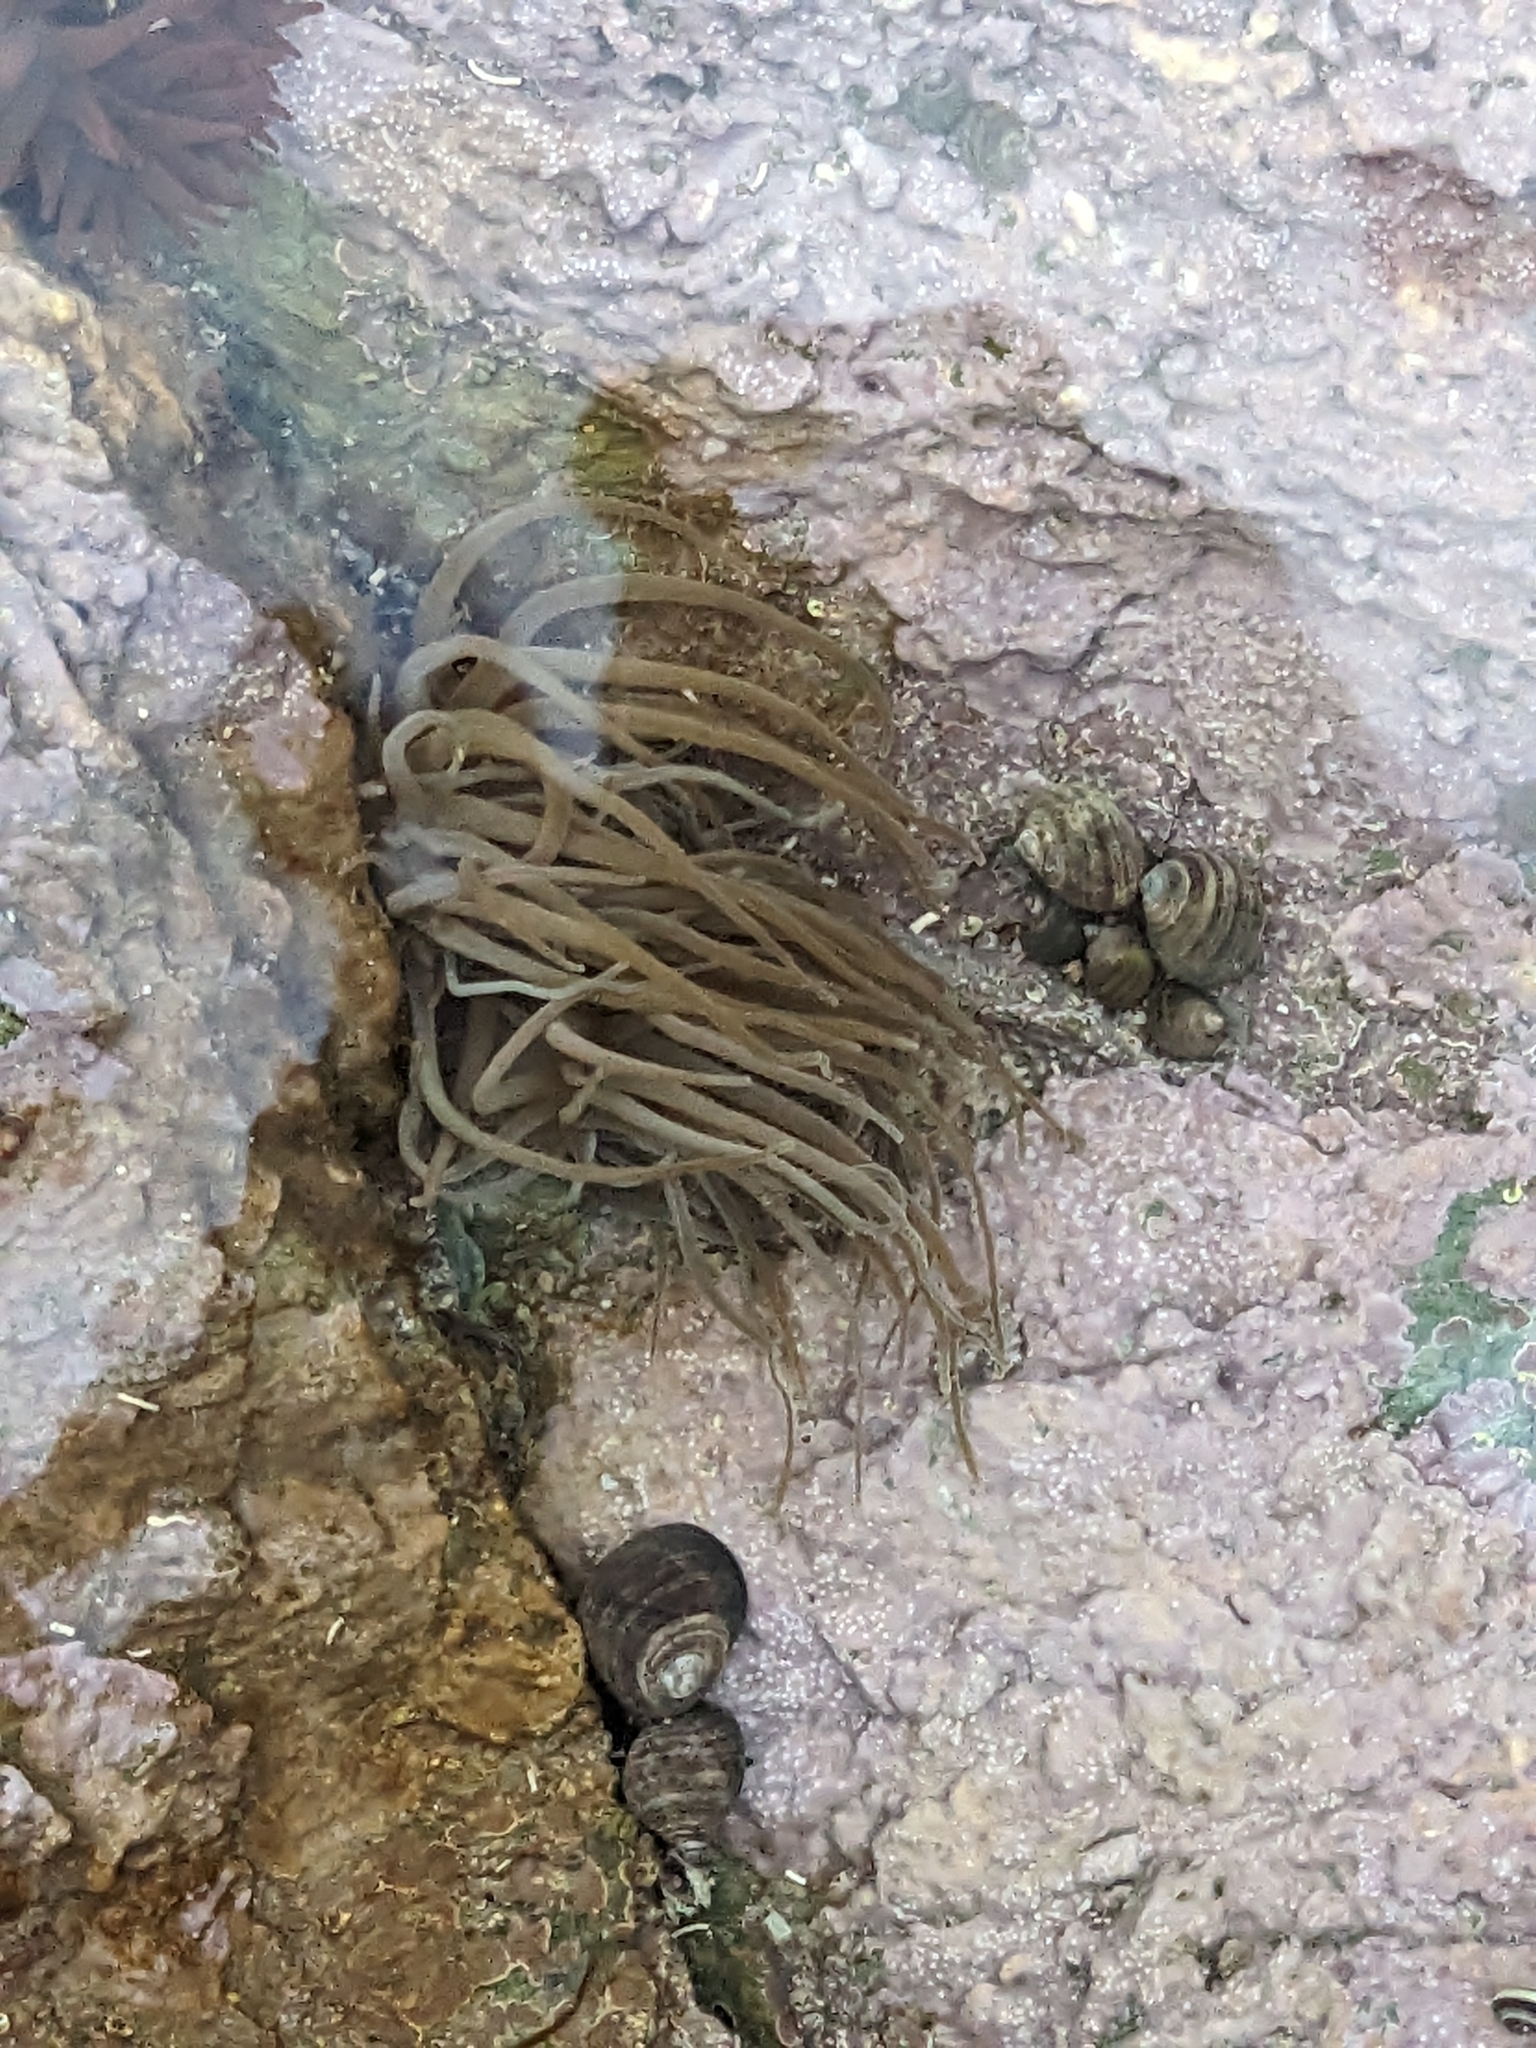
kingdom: Animalia
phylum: Cnidaria
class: Anthozoa
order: Actiniaria
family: Actiniidae
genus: Anemonia
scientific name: Anemonia viridis
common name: Snakelocks anemone
